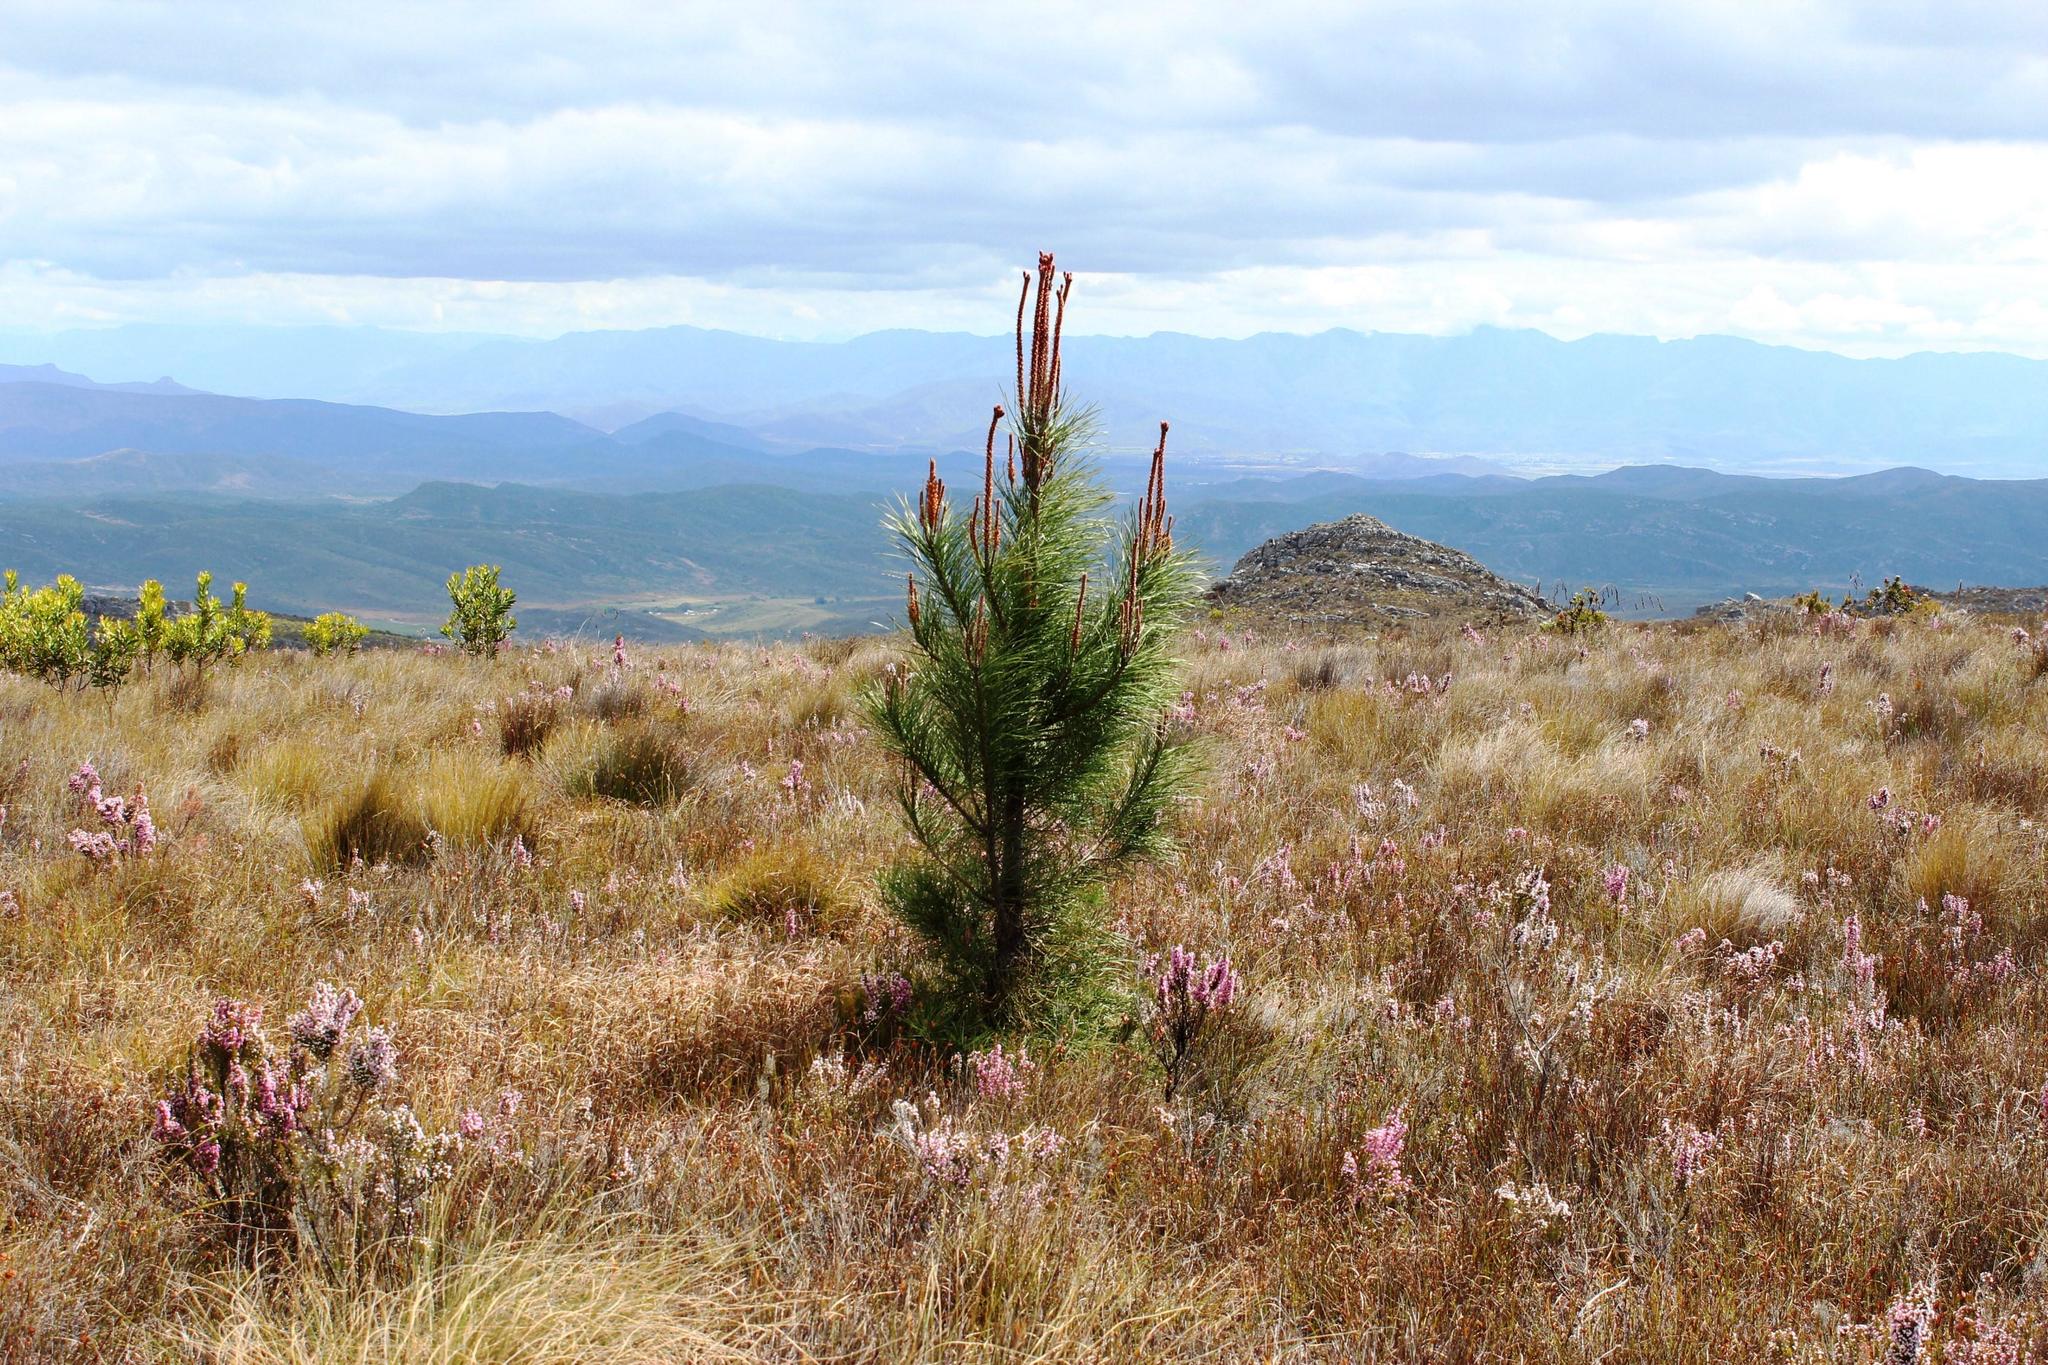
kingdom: Plantae
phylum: Tracheophyta
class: Pinopsida
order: Pinales
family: Pinaceae
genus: Pinus
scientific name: Pinus pinaster
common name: Maritime pine
